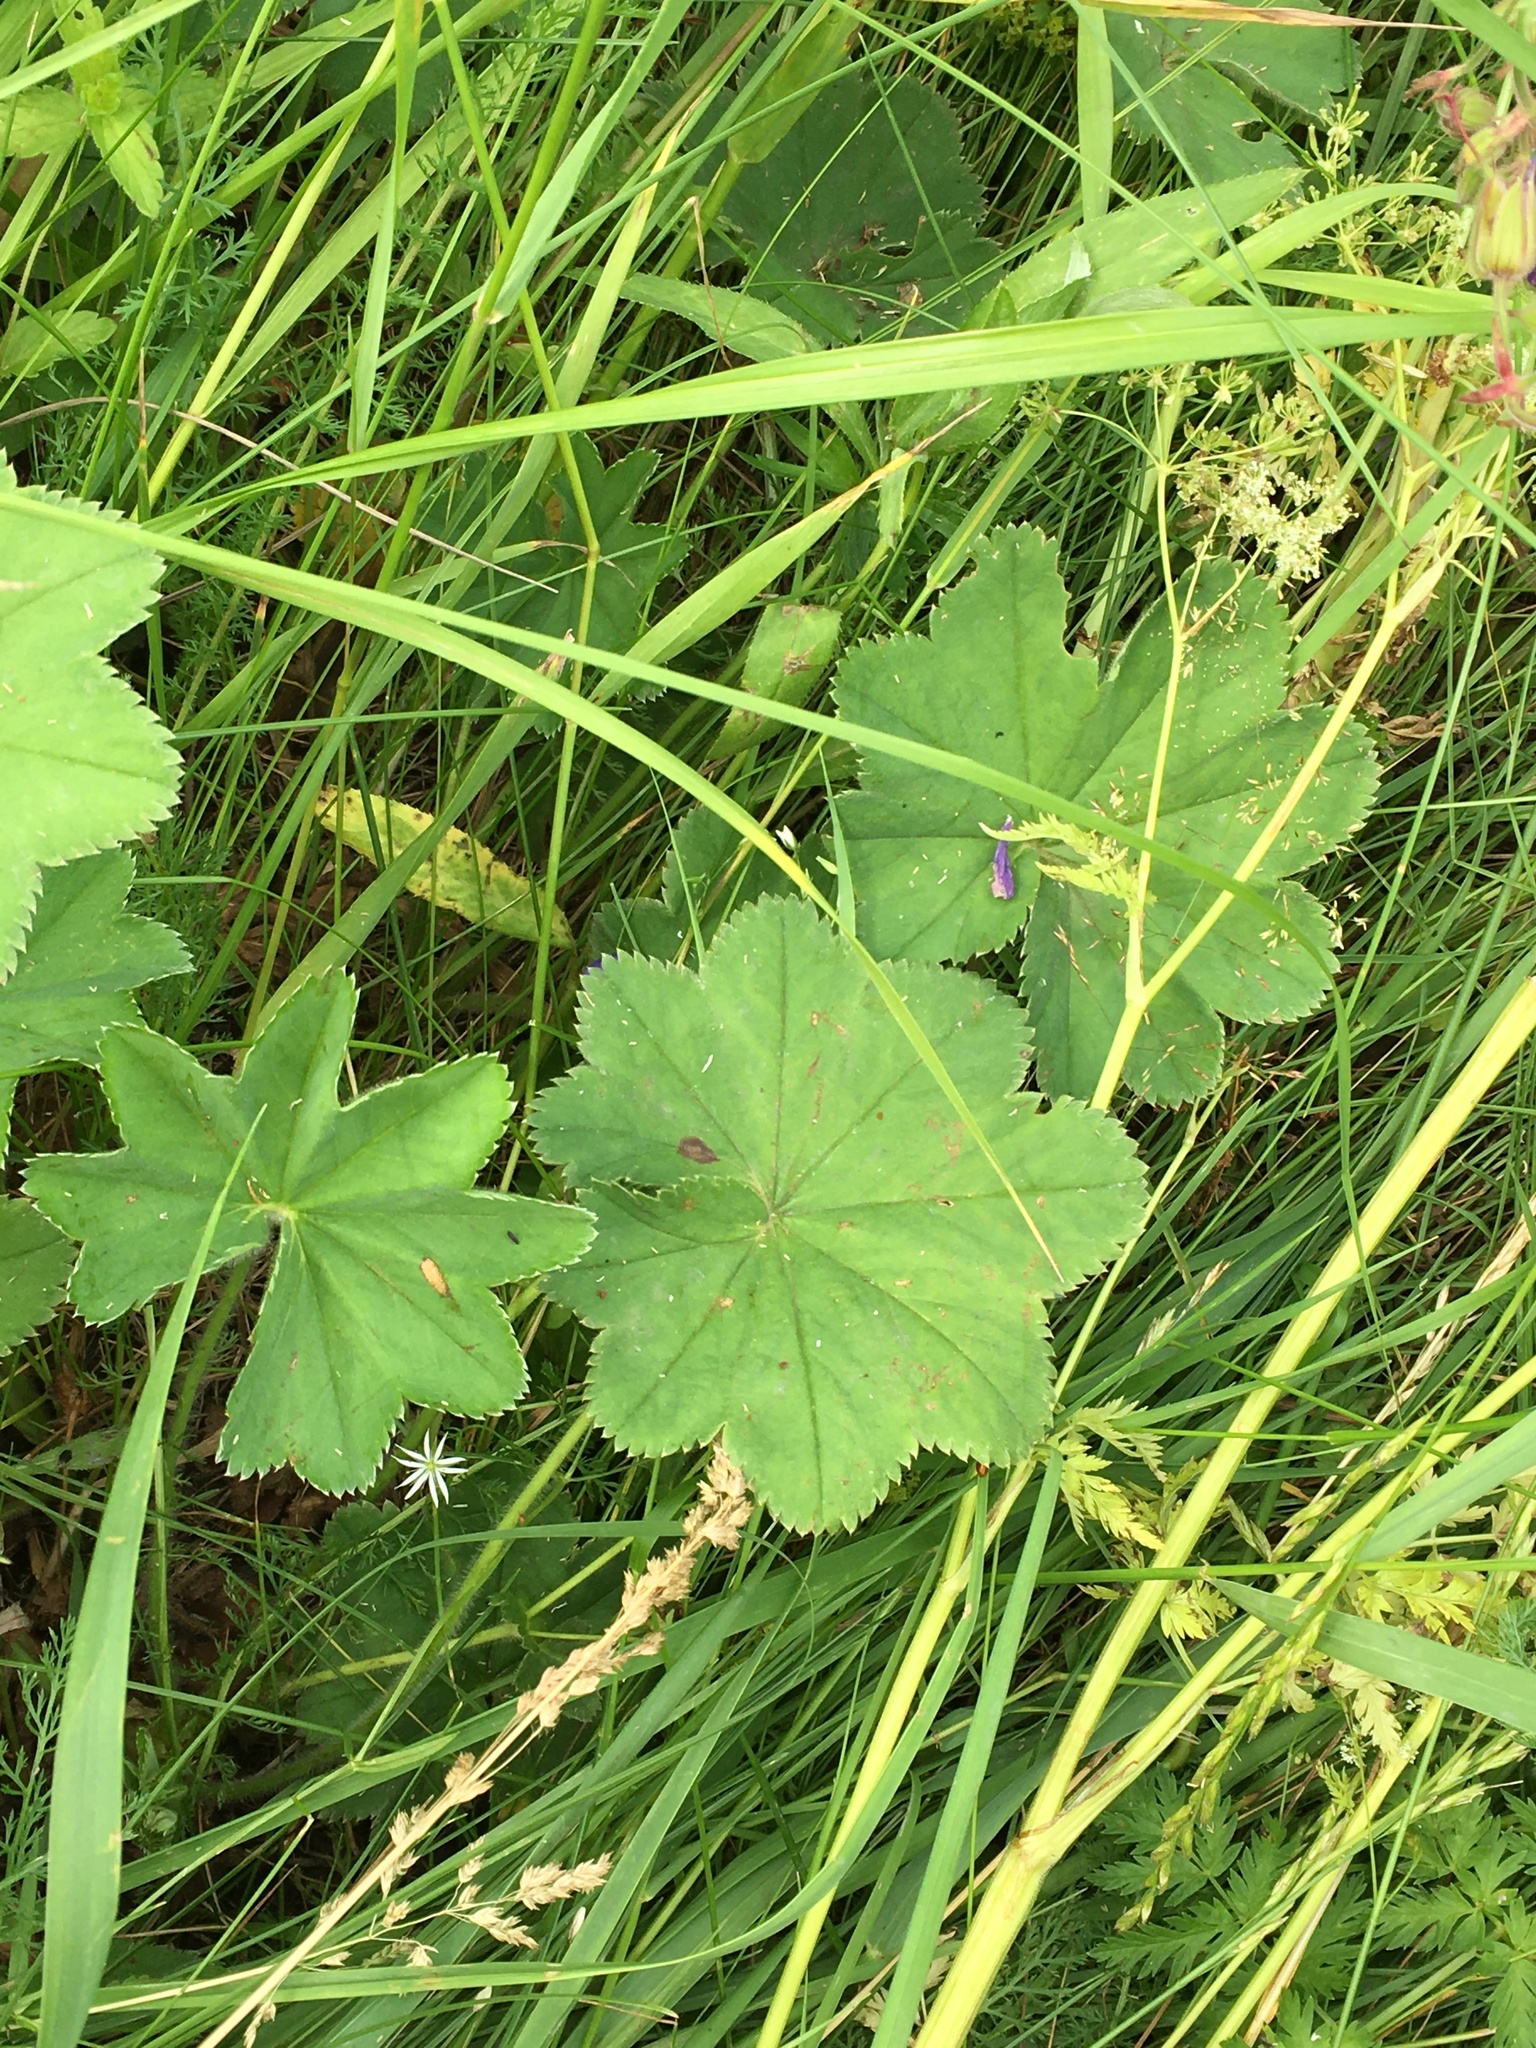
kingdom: Plantae
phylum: Tracheophyta
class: Magnoliopsida
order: Rosales
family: Rosaceae
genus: Alchemilla
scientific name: Alchemilla
